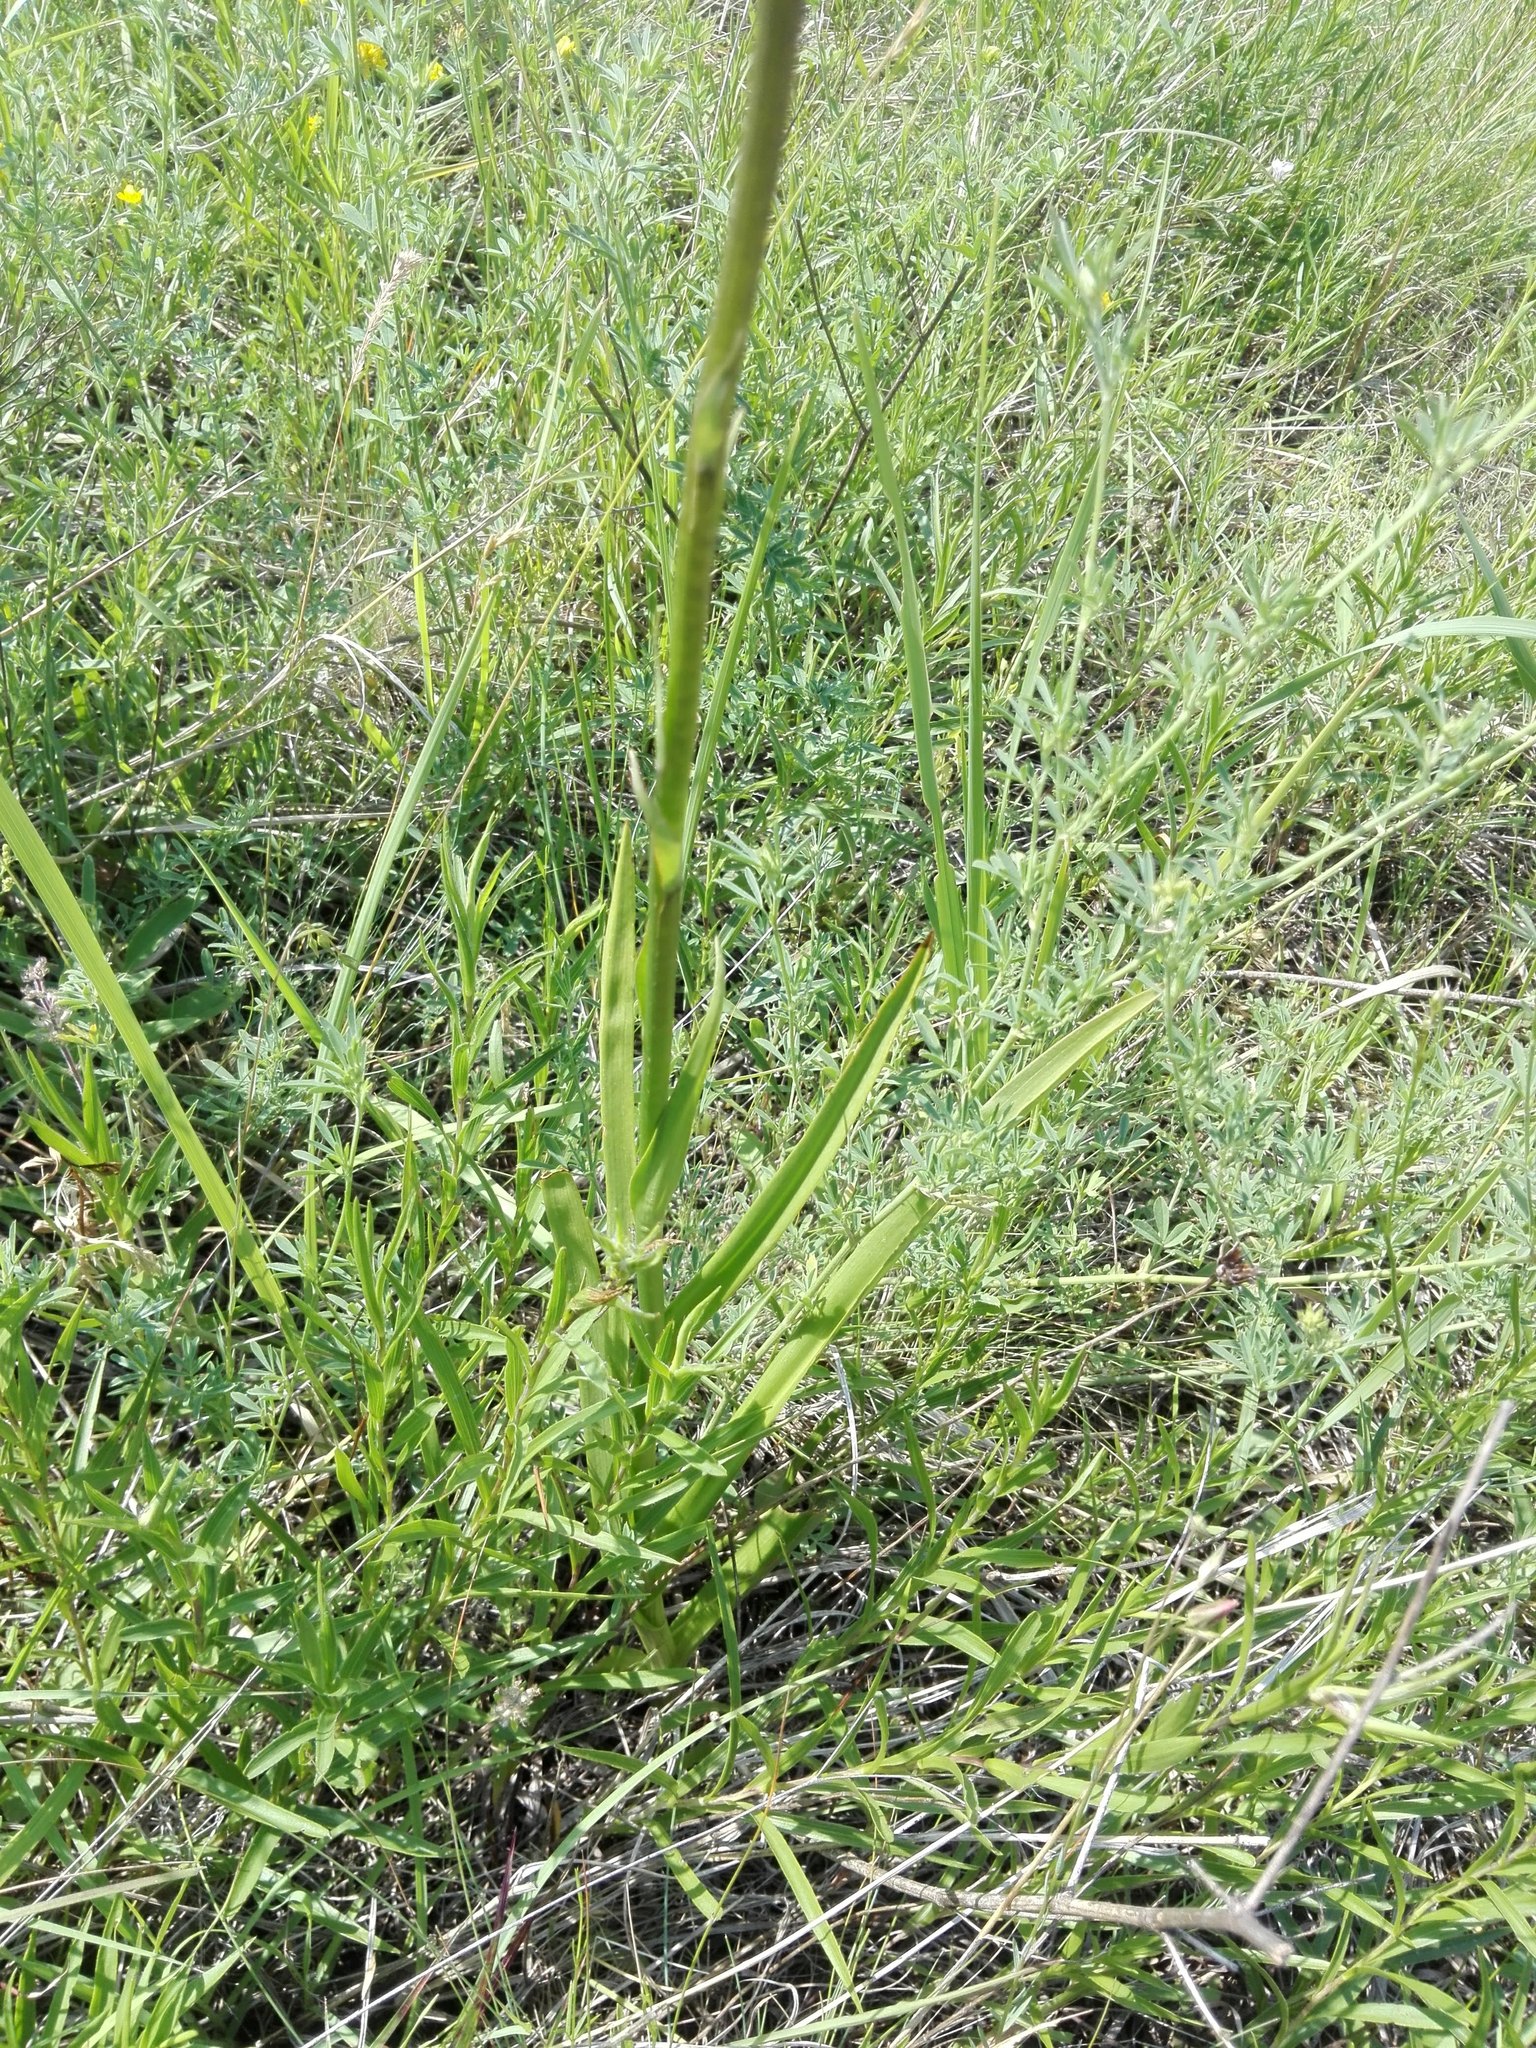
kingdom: Plantae
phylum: Tracheophyta
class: Liliopsida
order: Asparagales
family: Orchidaceae
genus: Gymnadenia
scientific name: Gymnadenia conopsea
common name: Fragrant orchid
